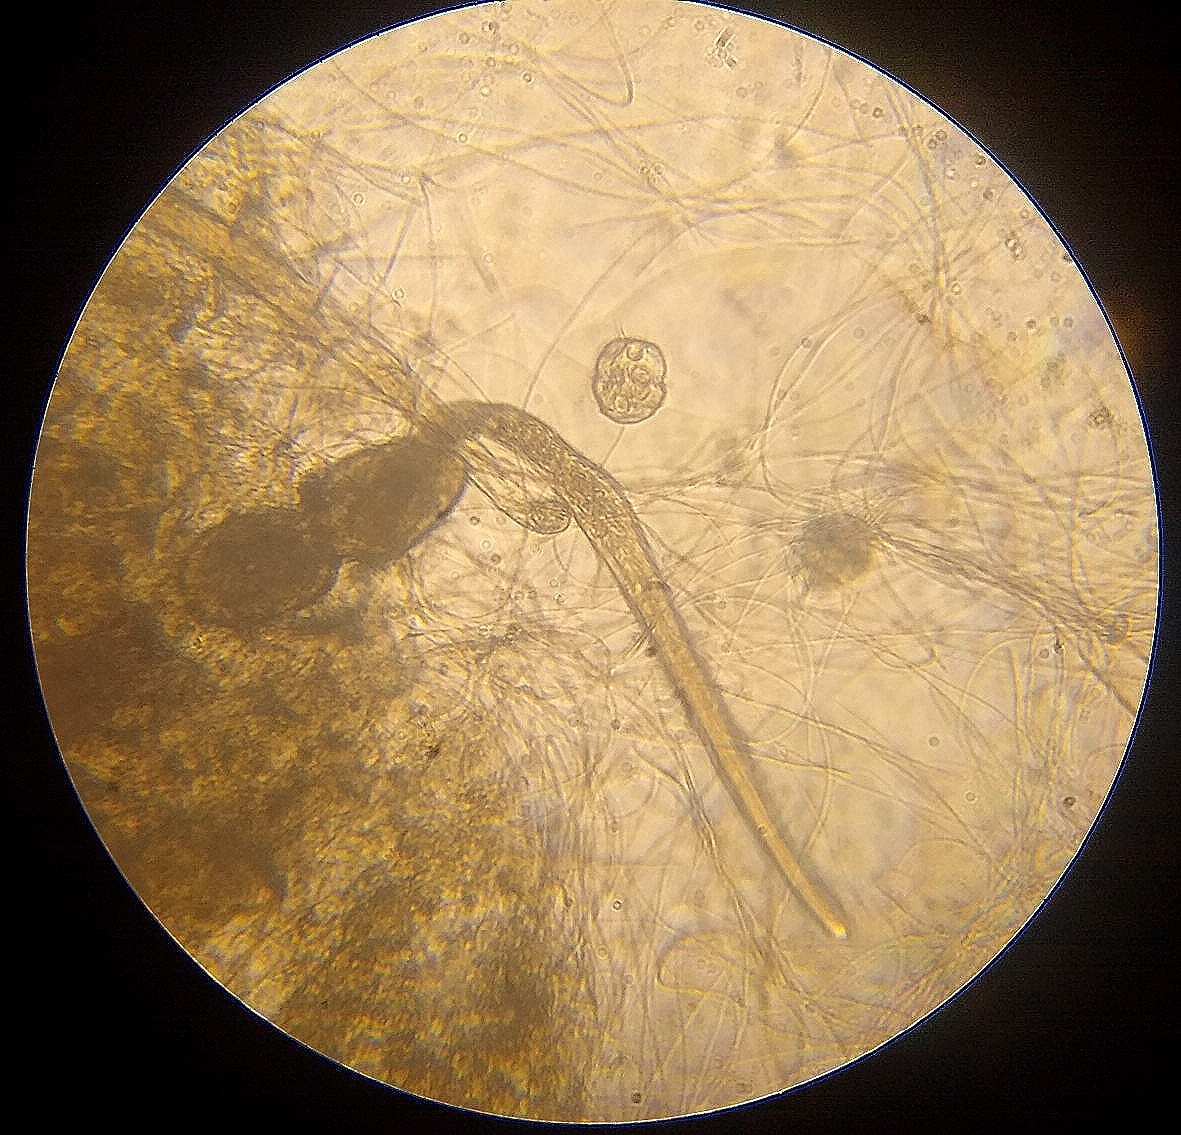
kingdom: Chromista
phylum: Ciliophora
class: Oligohymenophorea
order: Hymenostomatida
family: Urocentridae
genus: Urocentrum
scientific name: Urocentrum turbo
